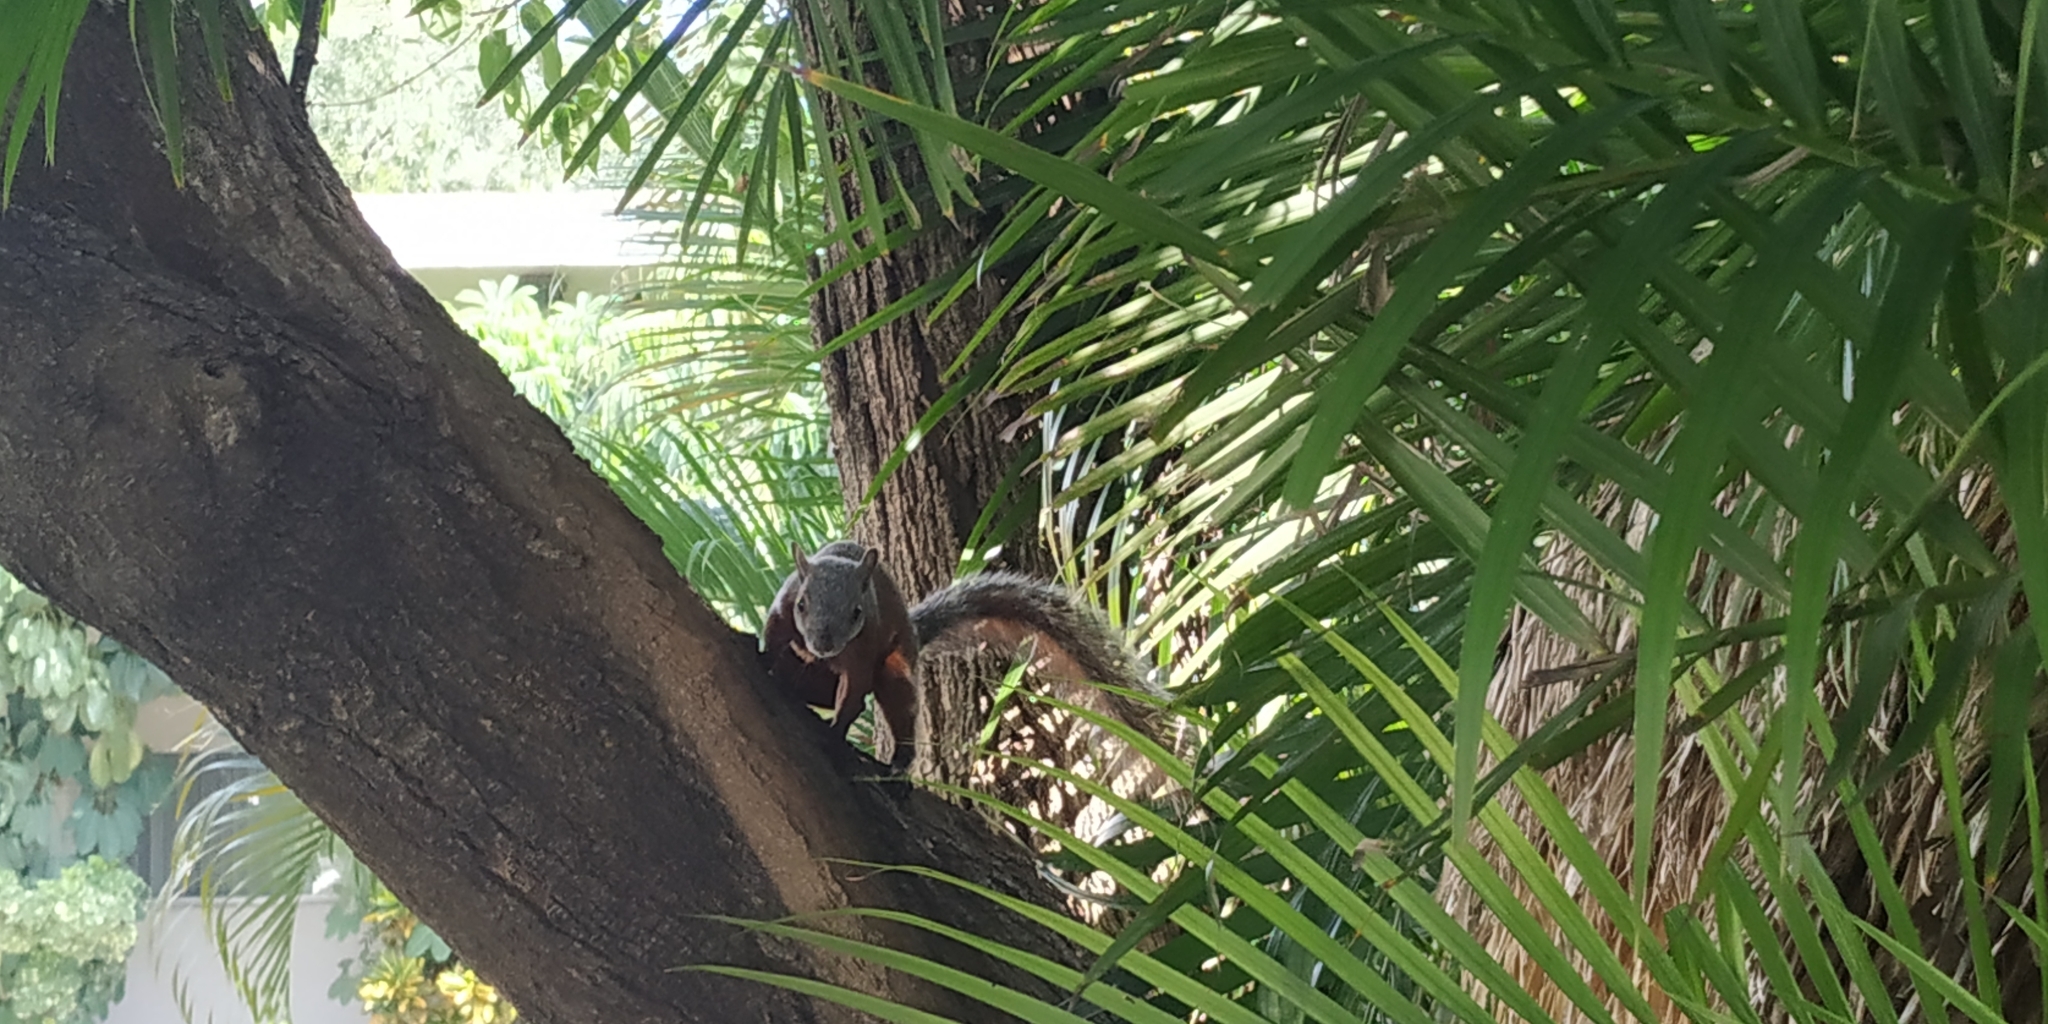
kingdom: Animalia
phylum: Chordata
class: Mammalia
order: Rodentia
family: Sciuridae
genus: Sciurus
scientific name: Sciurus aureogaster
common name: Red-bellied squirrel
